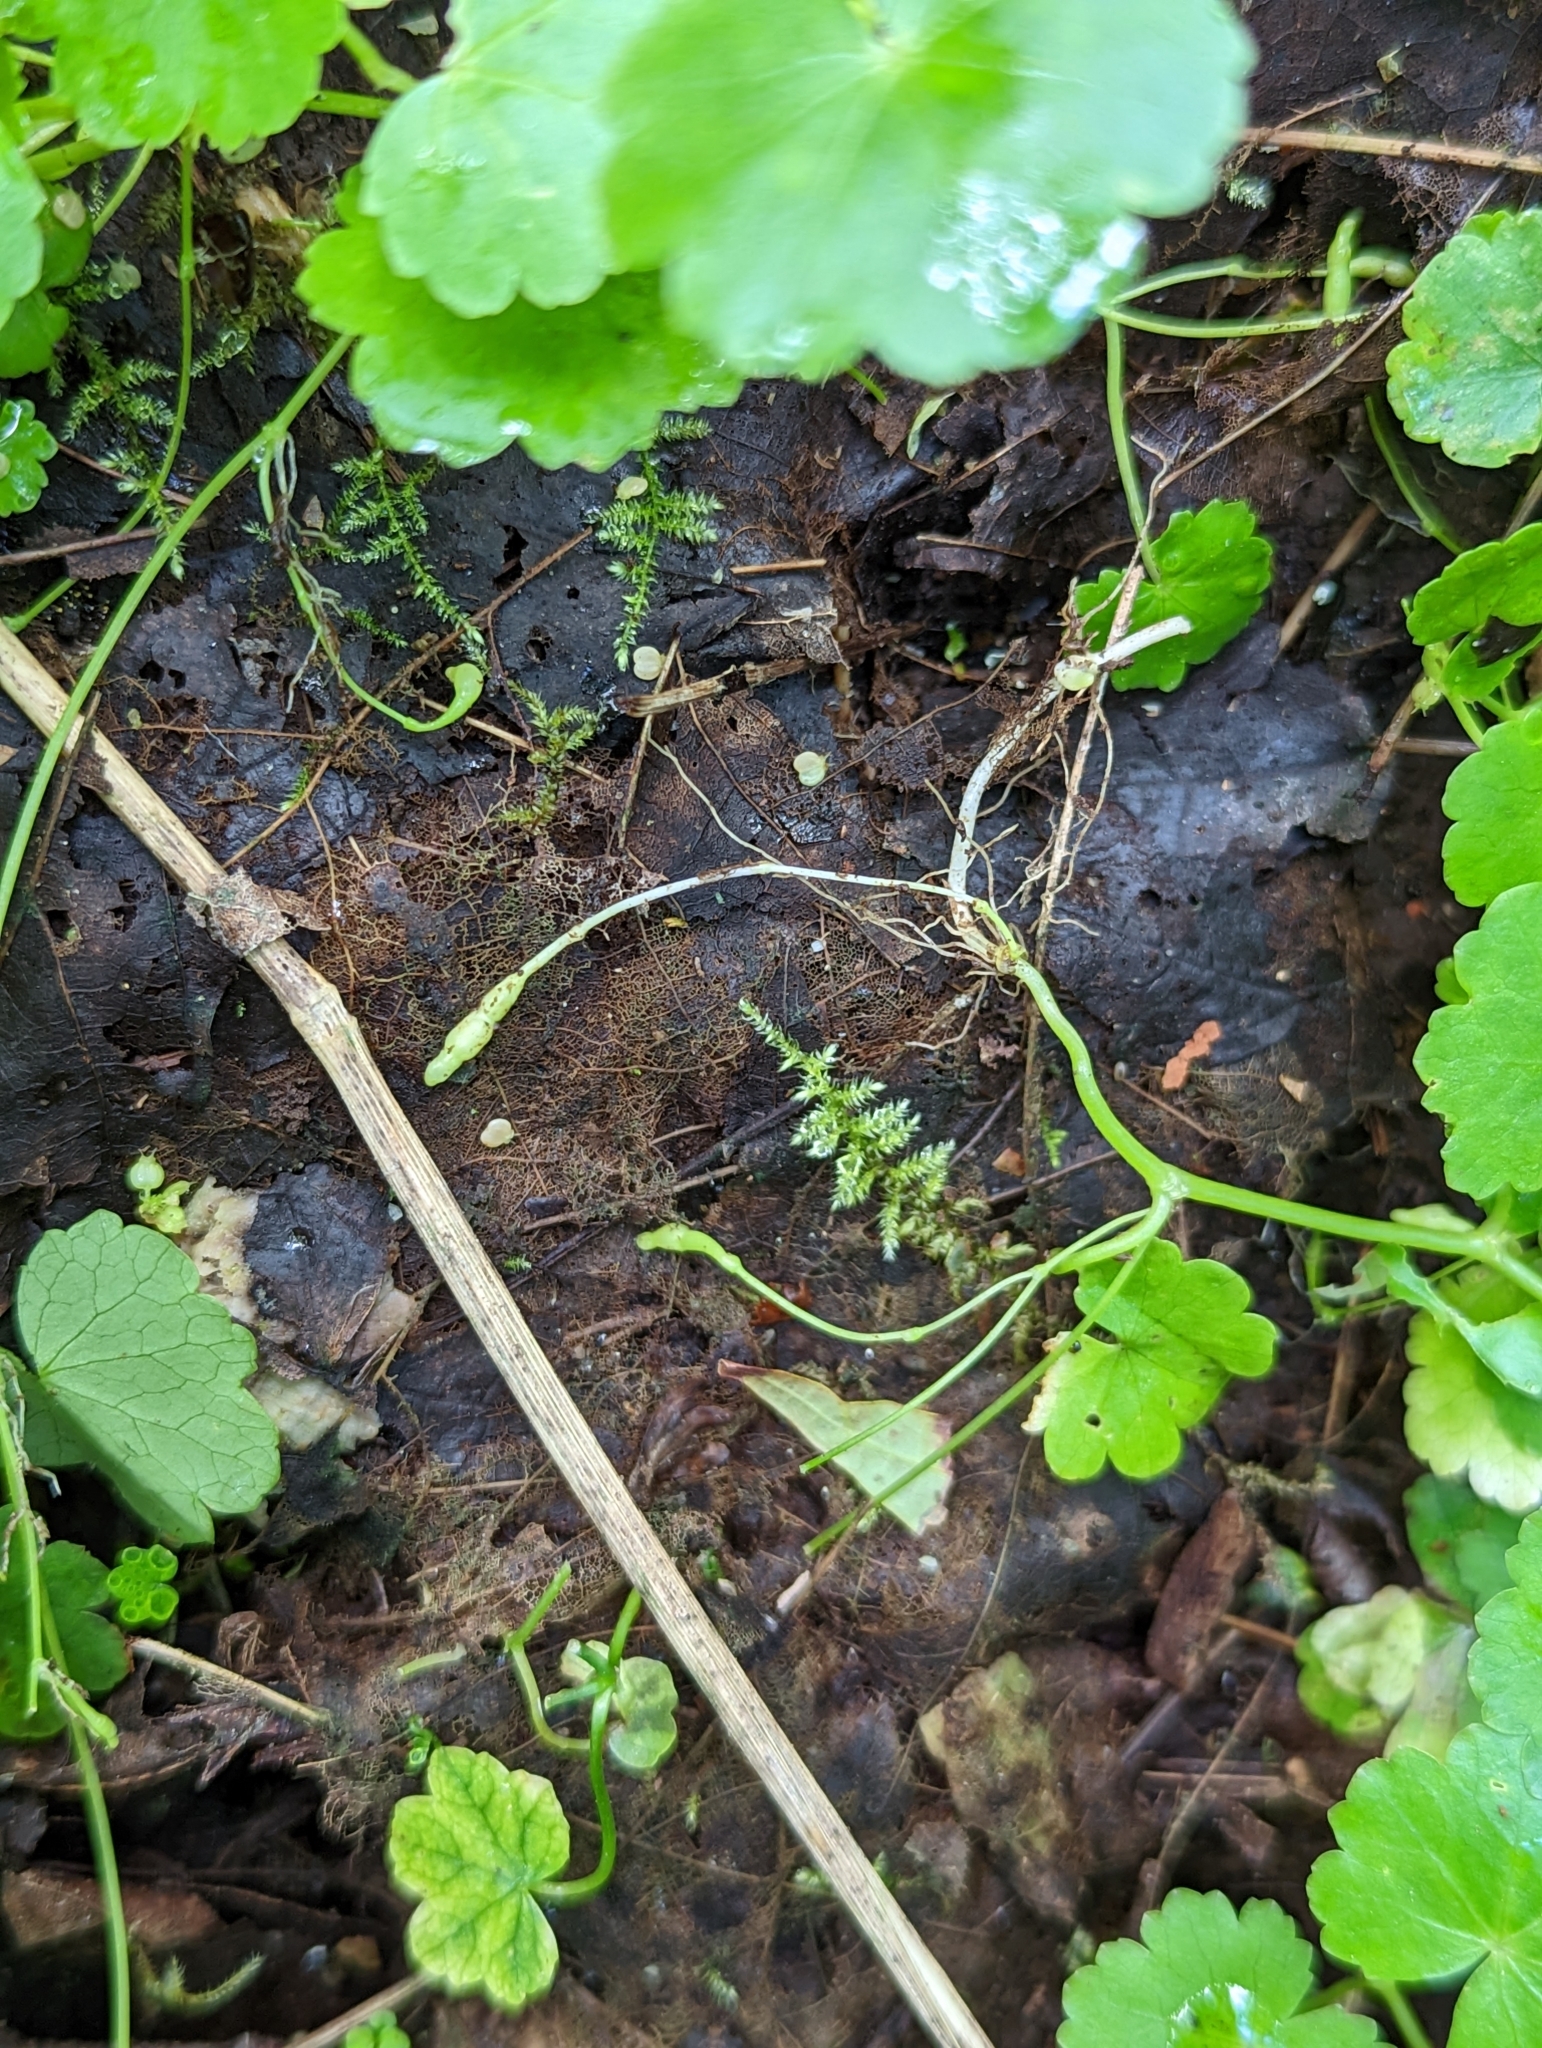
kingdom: Plantae
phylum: Tracheophyta
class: Magnoliopsida
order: Apiales
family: Araliaceae
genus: Hydrocotyle
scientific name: Hydrocotyle americana
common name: American water-pennywort
